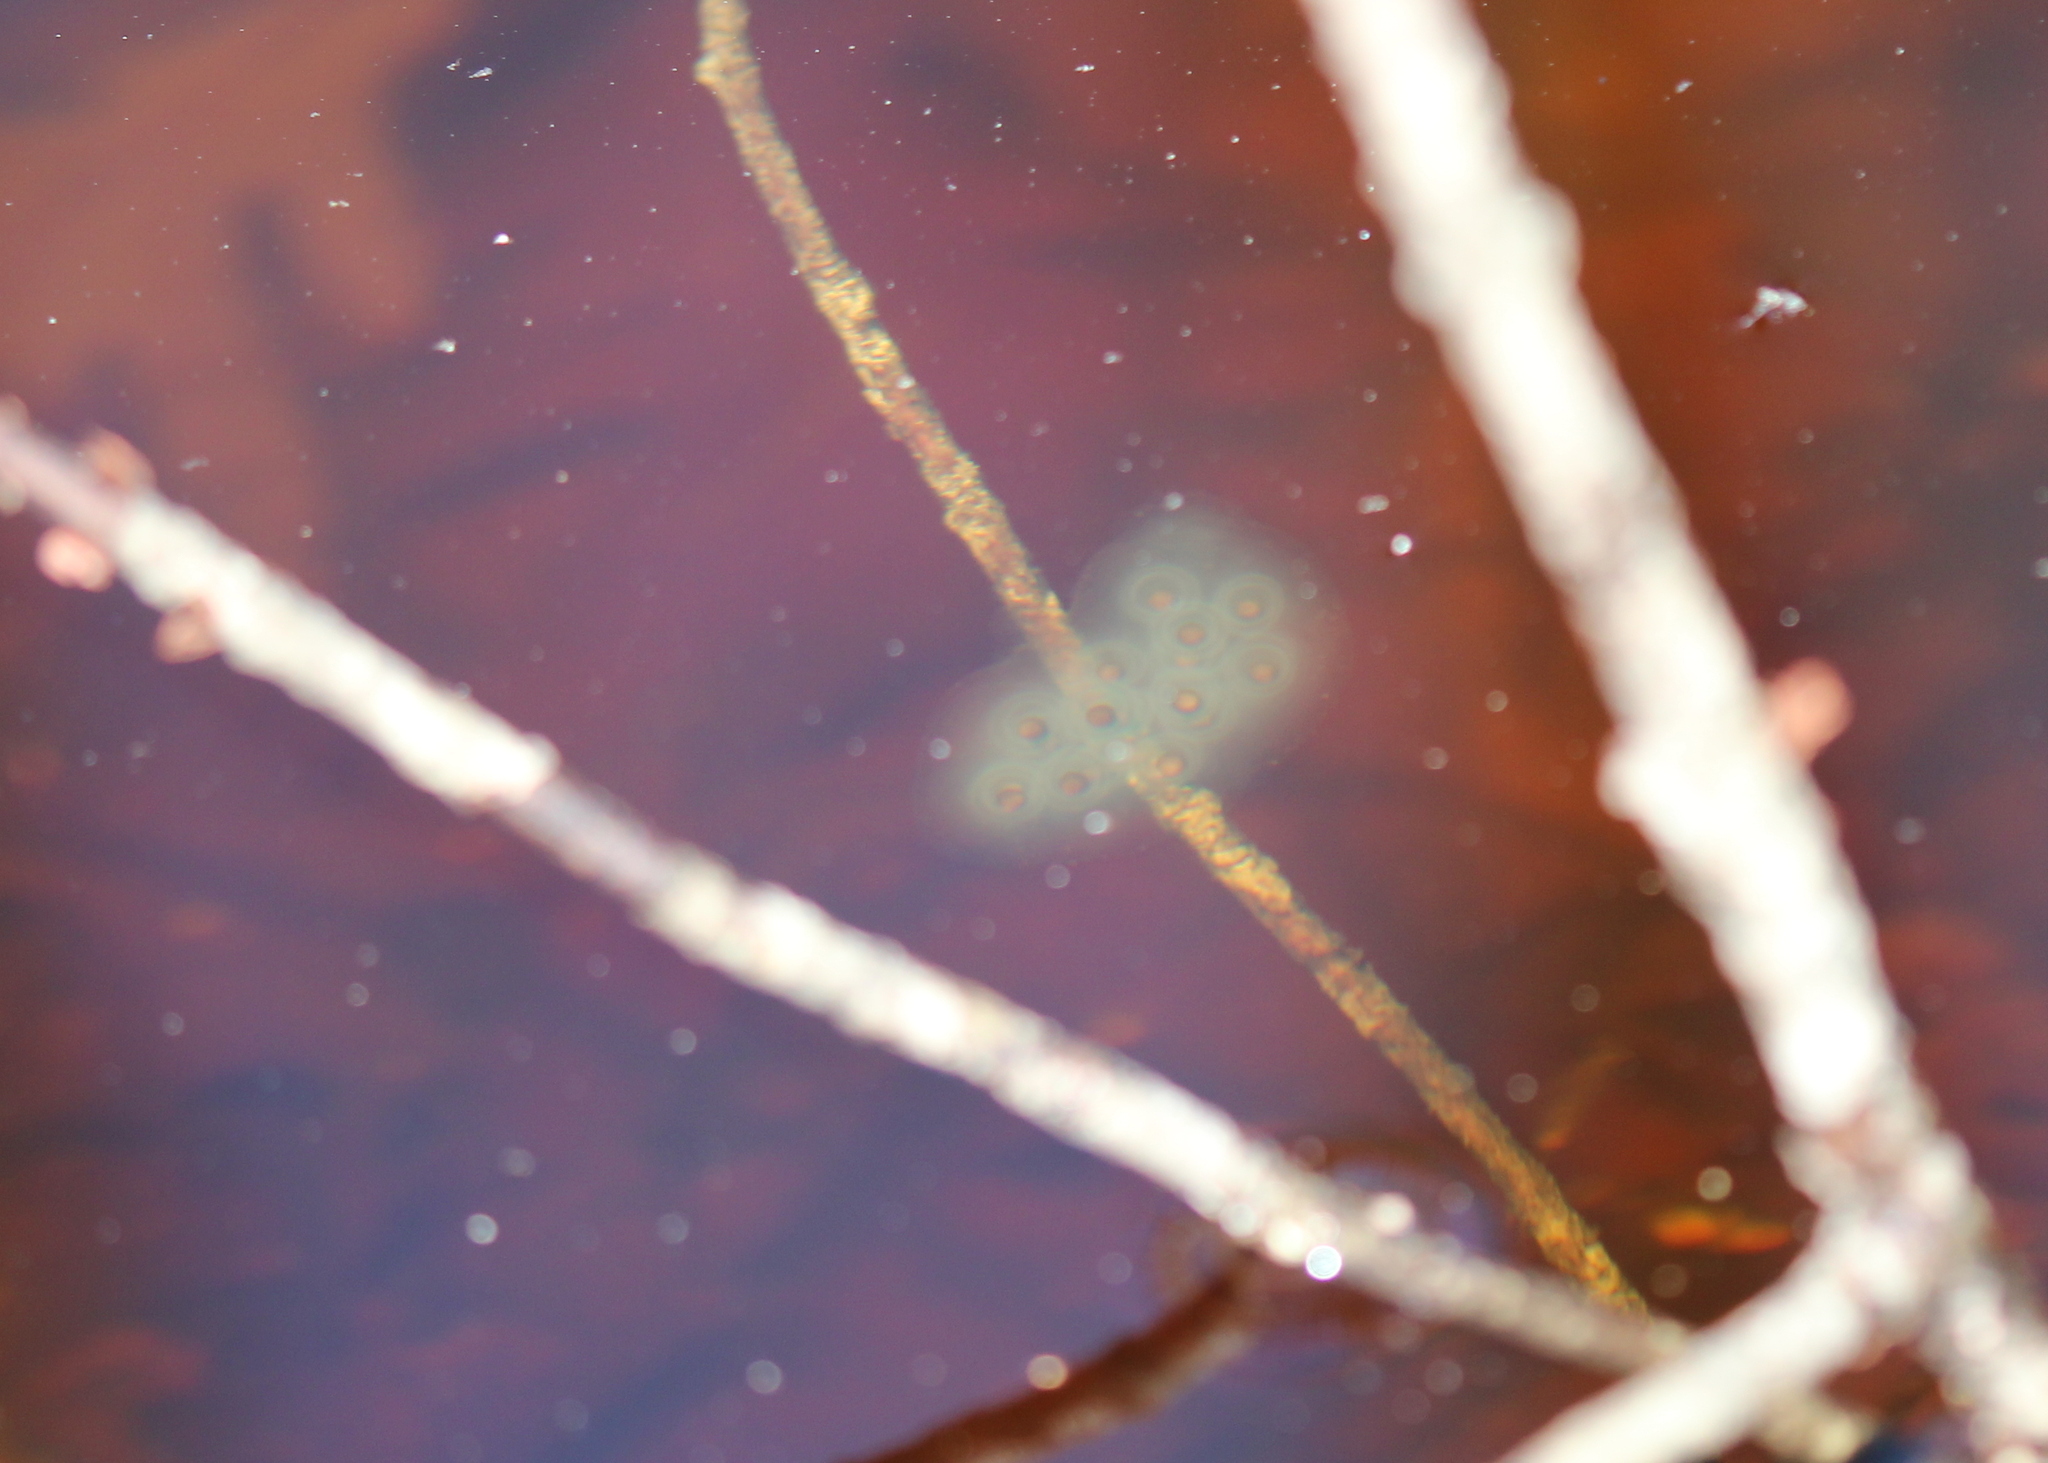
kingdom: Animalia
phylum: Chordata
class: Amphibia
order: Caudata
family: Ambystomatidae
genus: Ambystoma
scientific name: Ambystoma maculatum
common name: Spotted salamander
